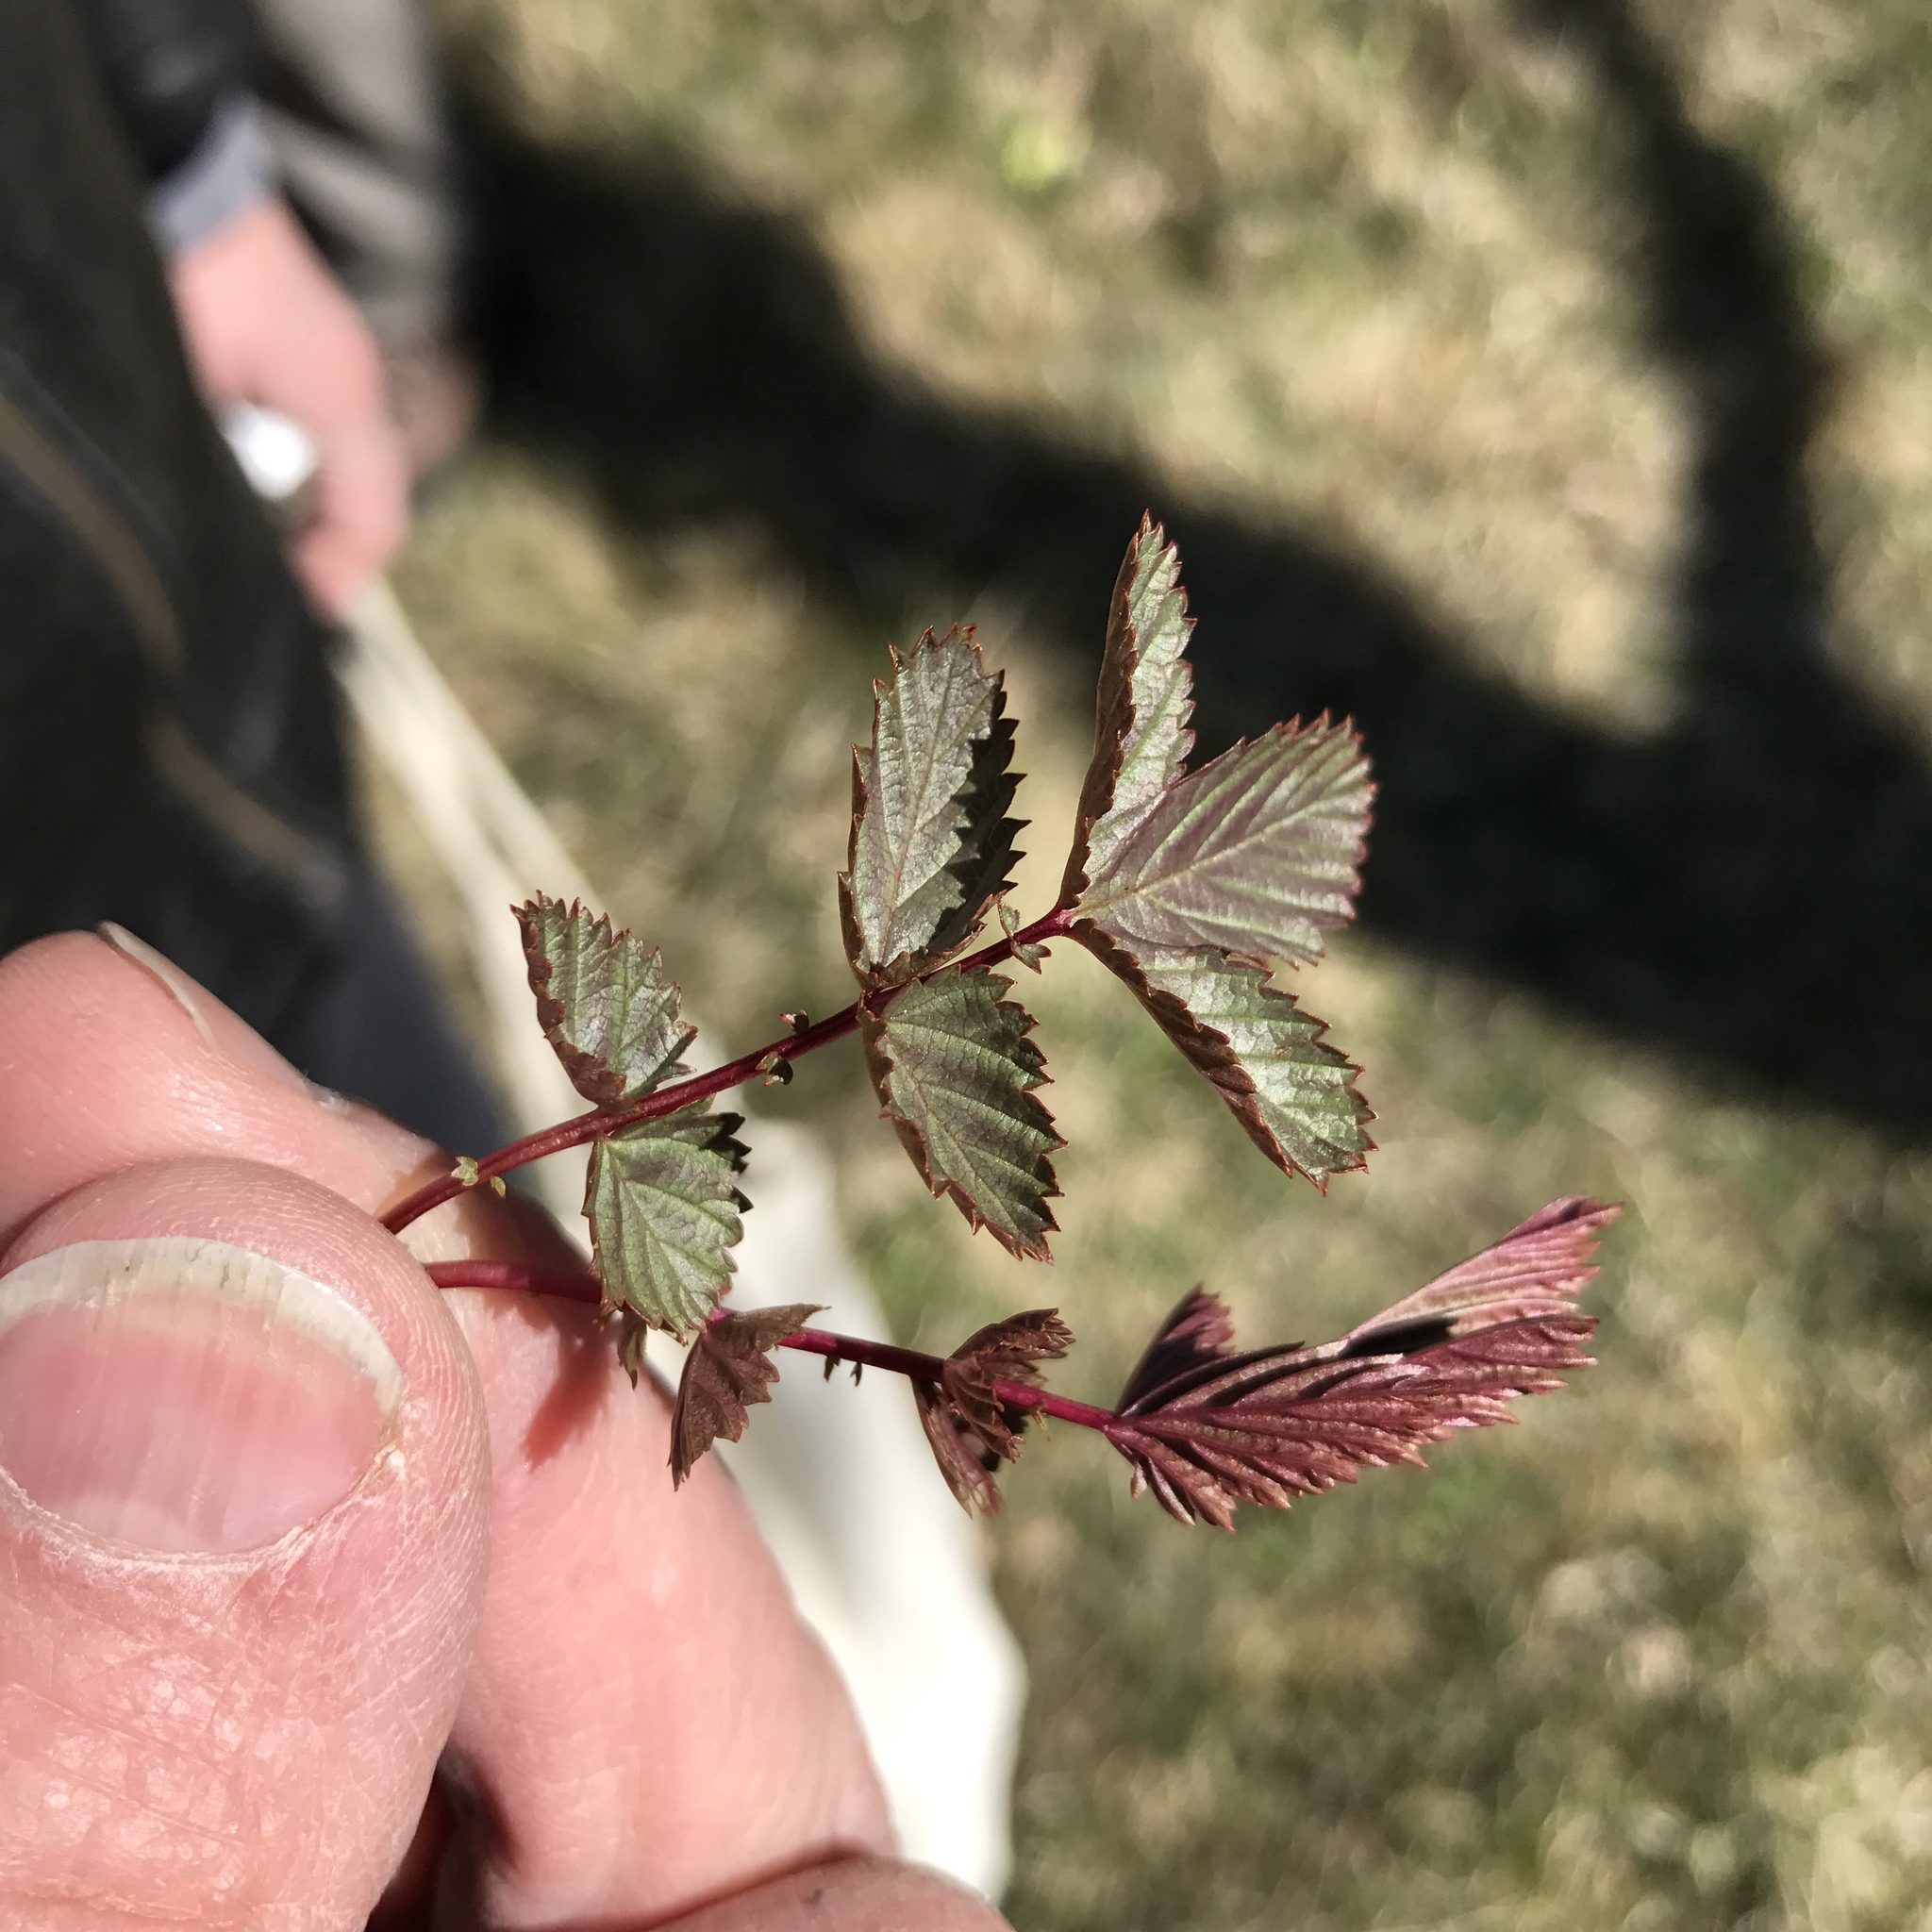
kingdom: Plantae
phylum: Tracheophyta
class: Magnoliopsida
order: Rosales
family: Rosaceae
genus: Filipendula
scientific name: Filipendula ulmaria
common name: Meadowsweet
